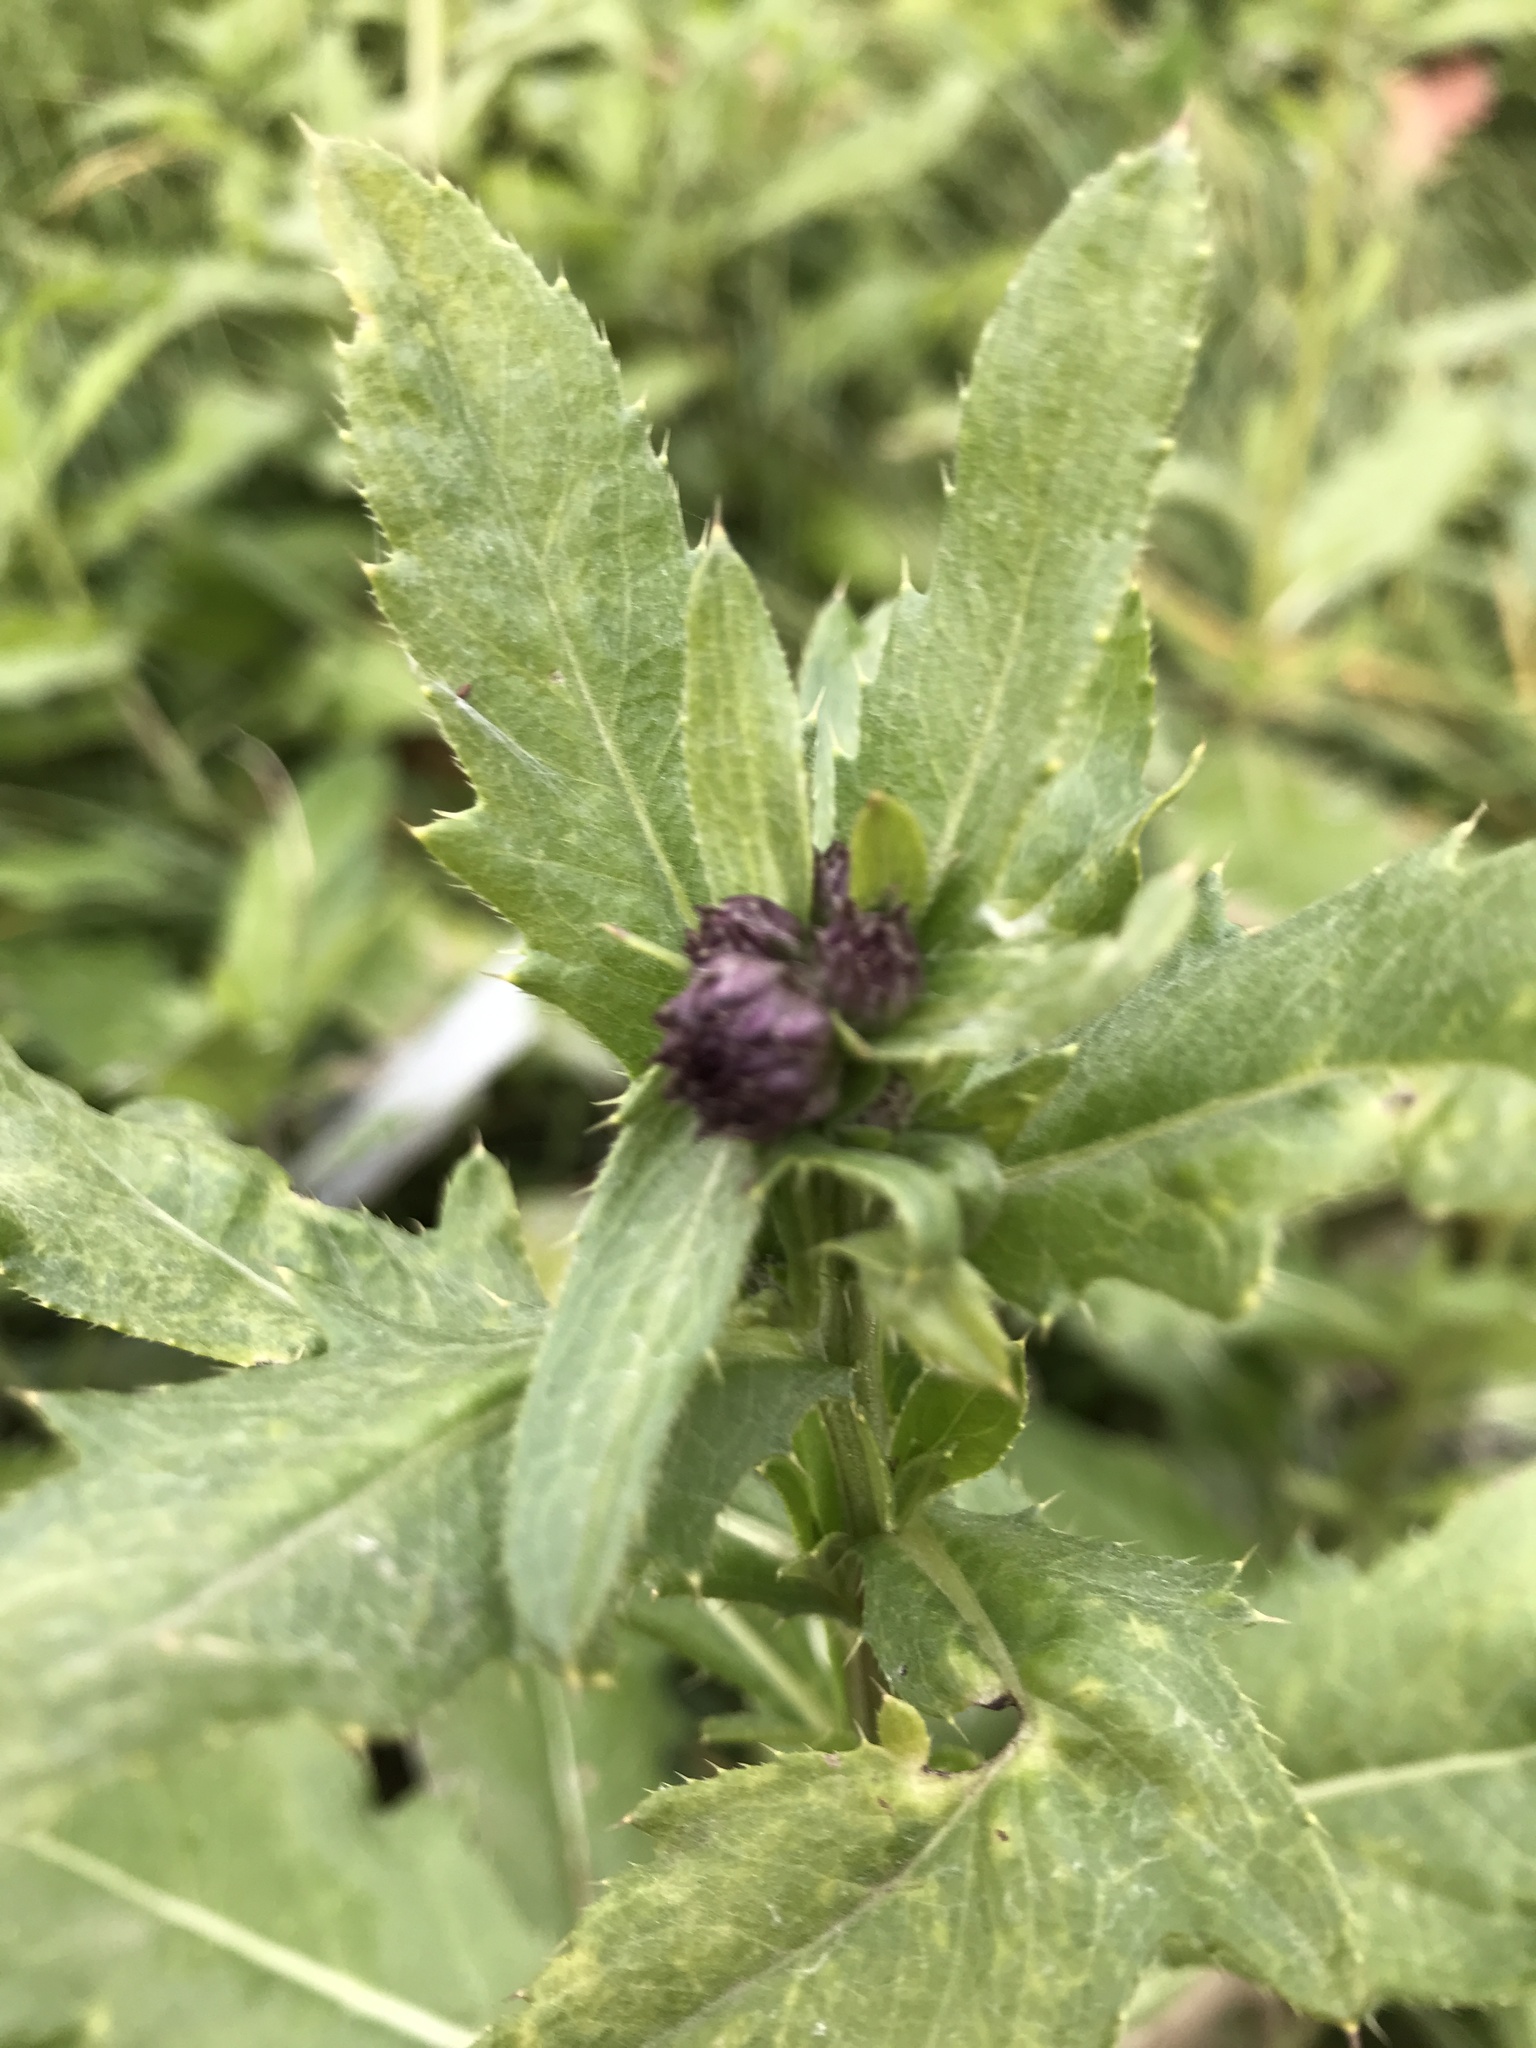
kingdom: Plantae
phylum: Tracheophyta
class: Magnoliopsida
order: Asterales
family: Asteraceae
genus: Cirsium
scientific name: Cirsium arvense
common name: Creeping thistle
